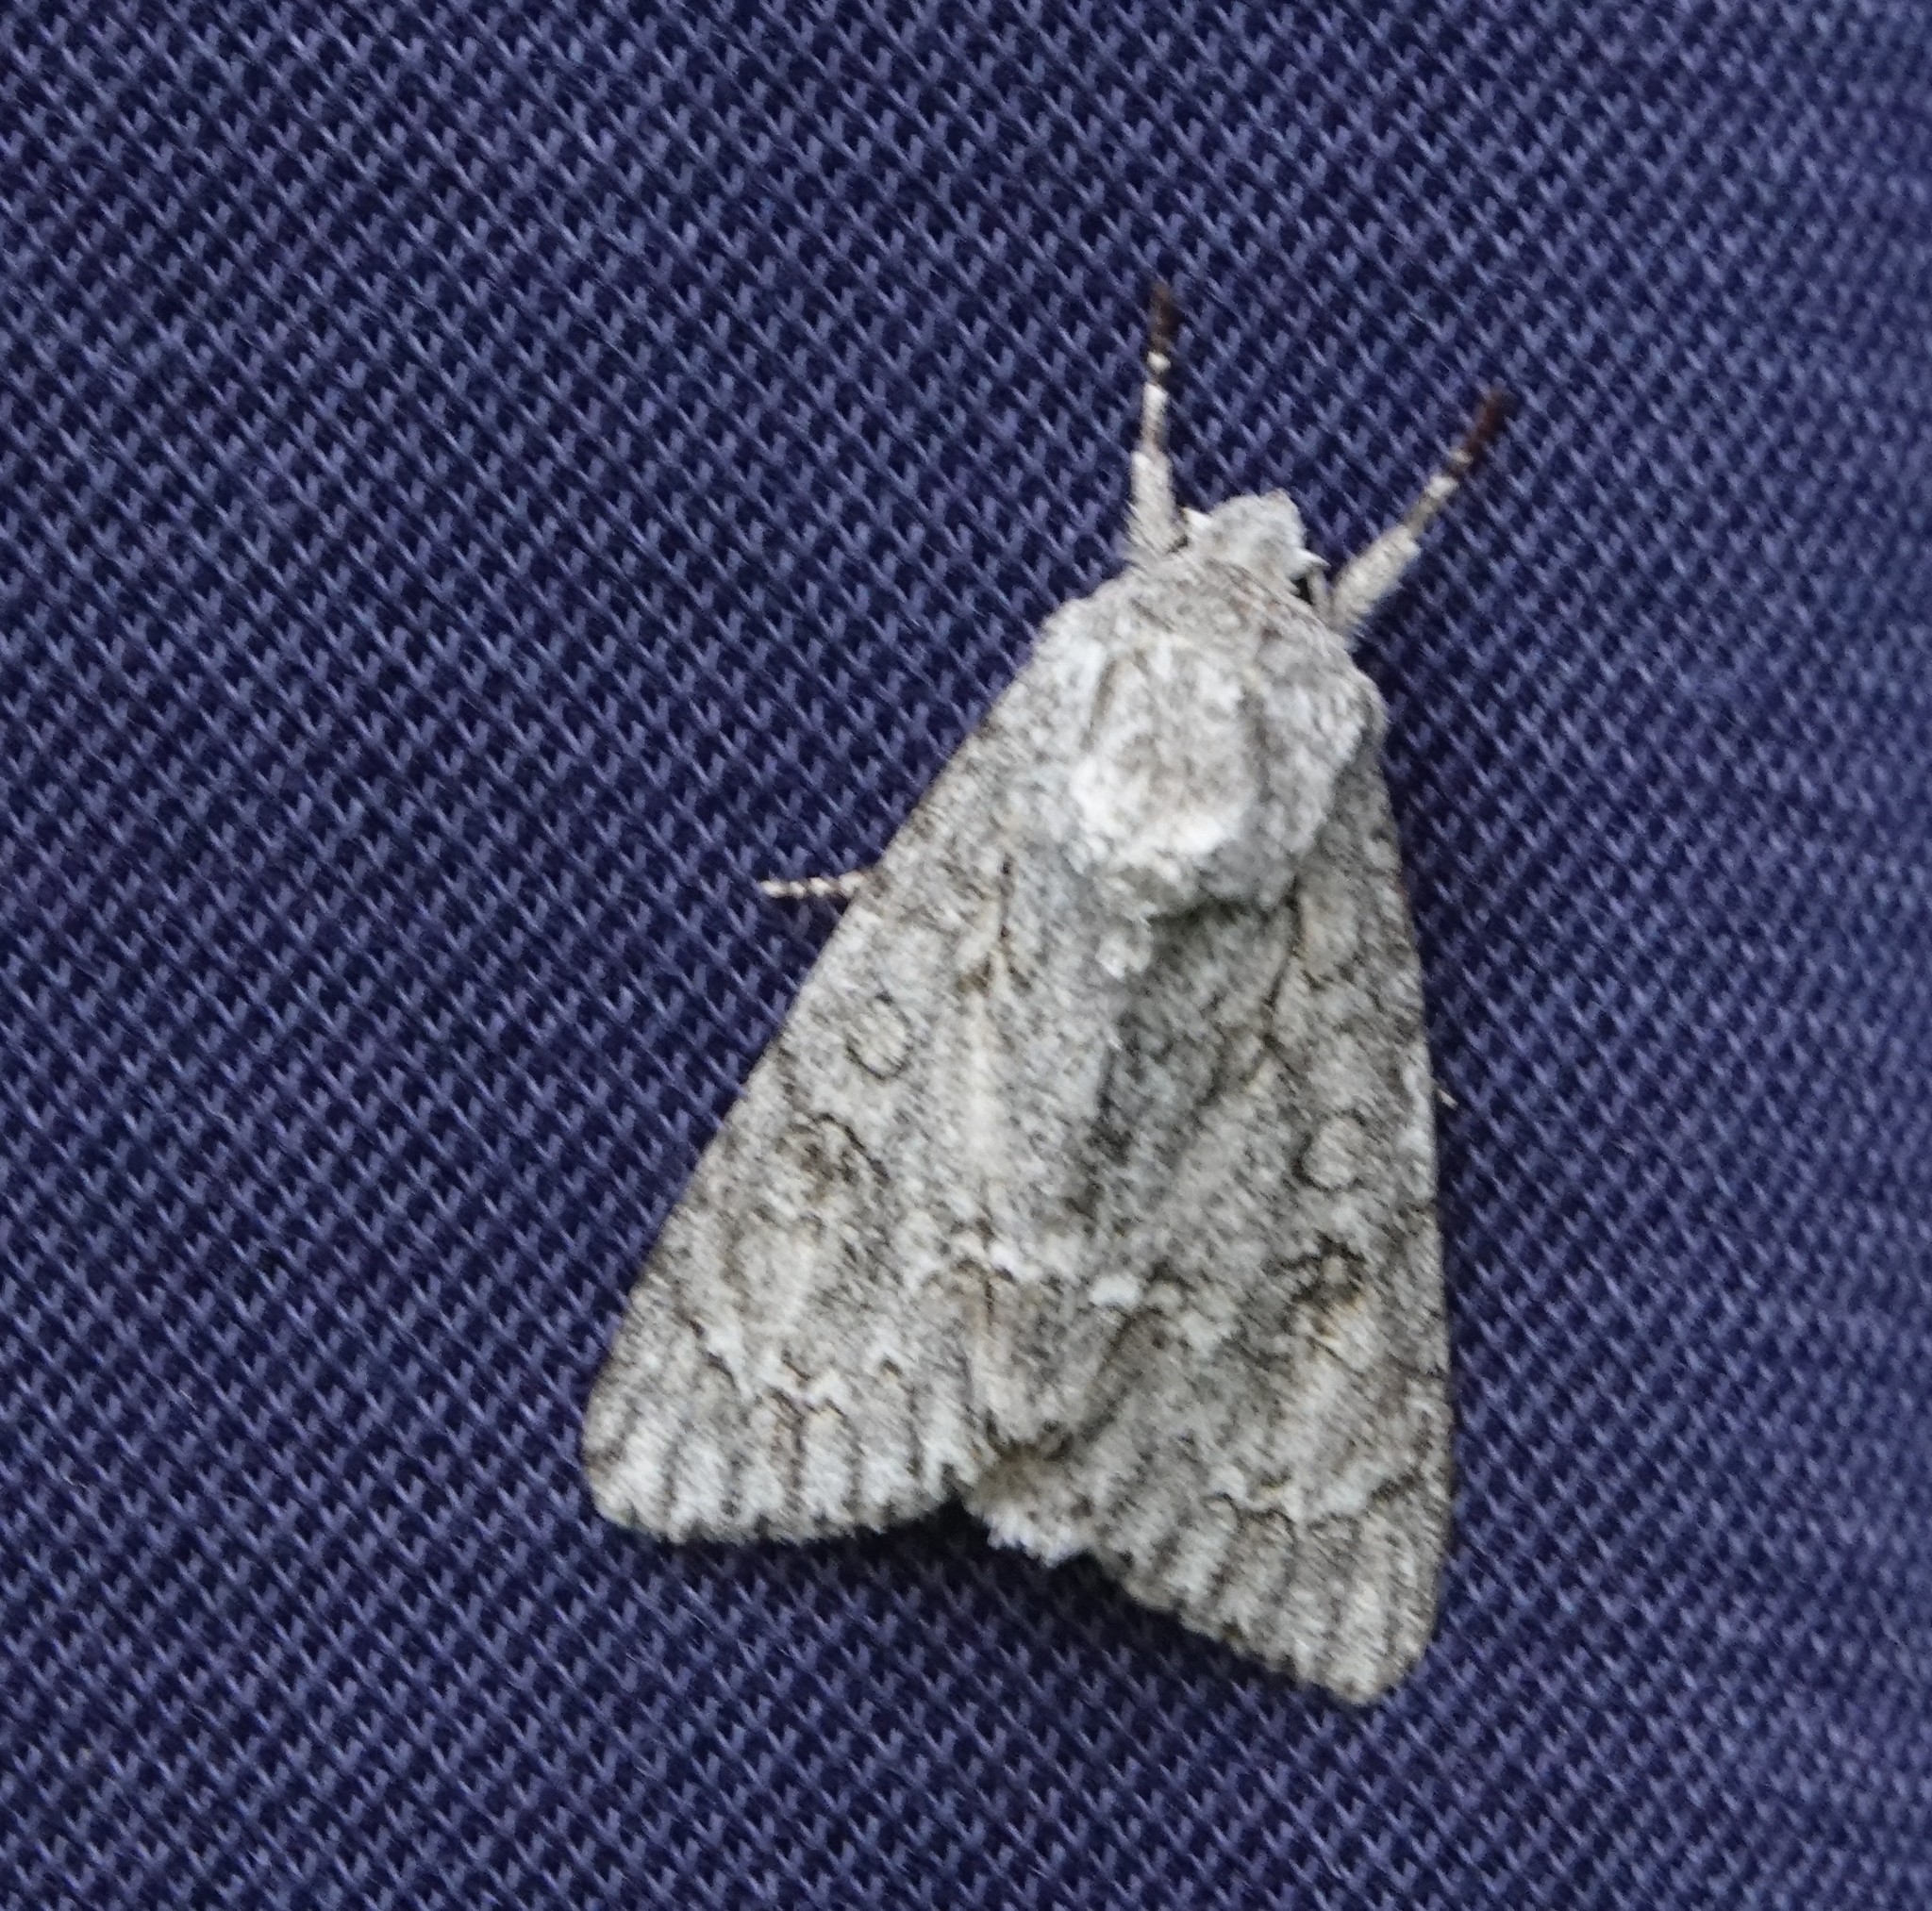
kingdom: Animalia
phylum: Arthropoda
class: Insecta
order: Lepidoptera
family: Noctuidae
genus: Acronicta
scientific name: Acronicta aceris
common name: Sycamore
